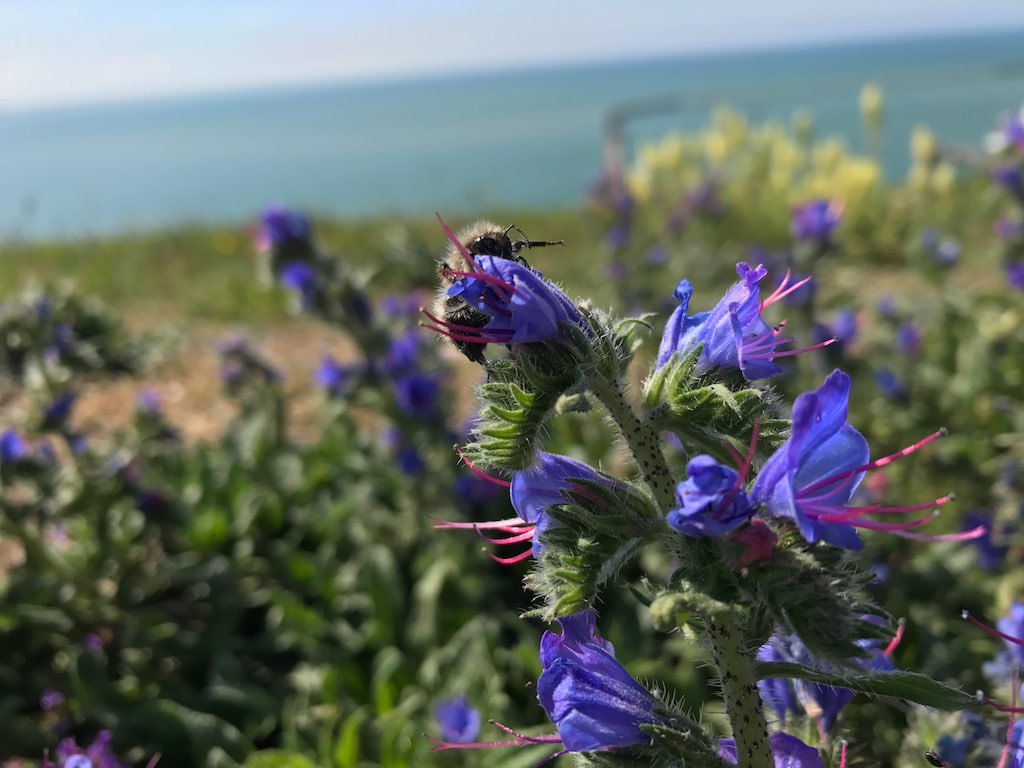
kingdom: Plantae
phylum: Tracheophyta
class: Magnoliopsida
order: Boraginales
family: Boraginaceae
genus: Echium
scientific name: Echium vulgare
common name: Common viper's bugloss
